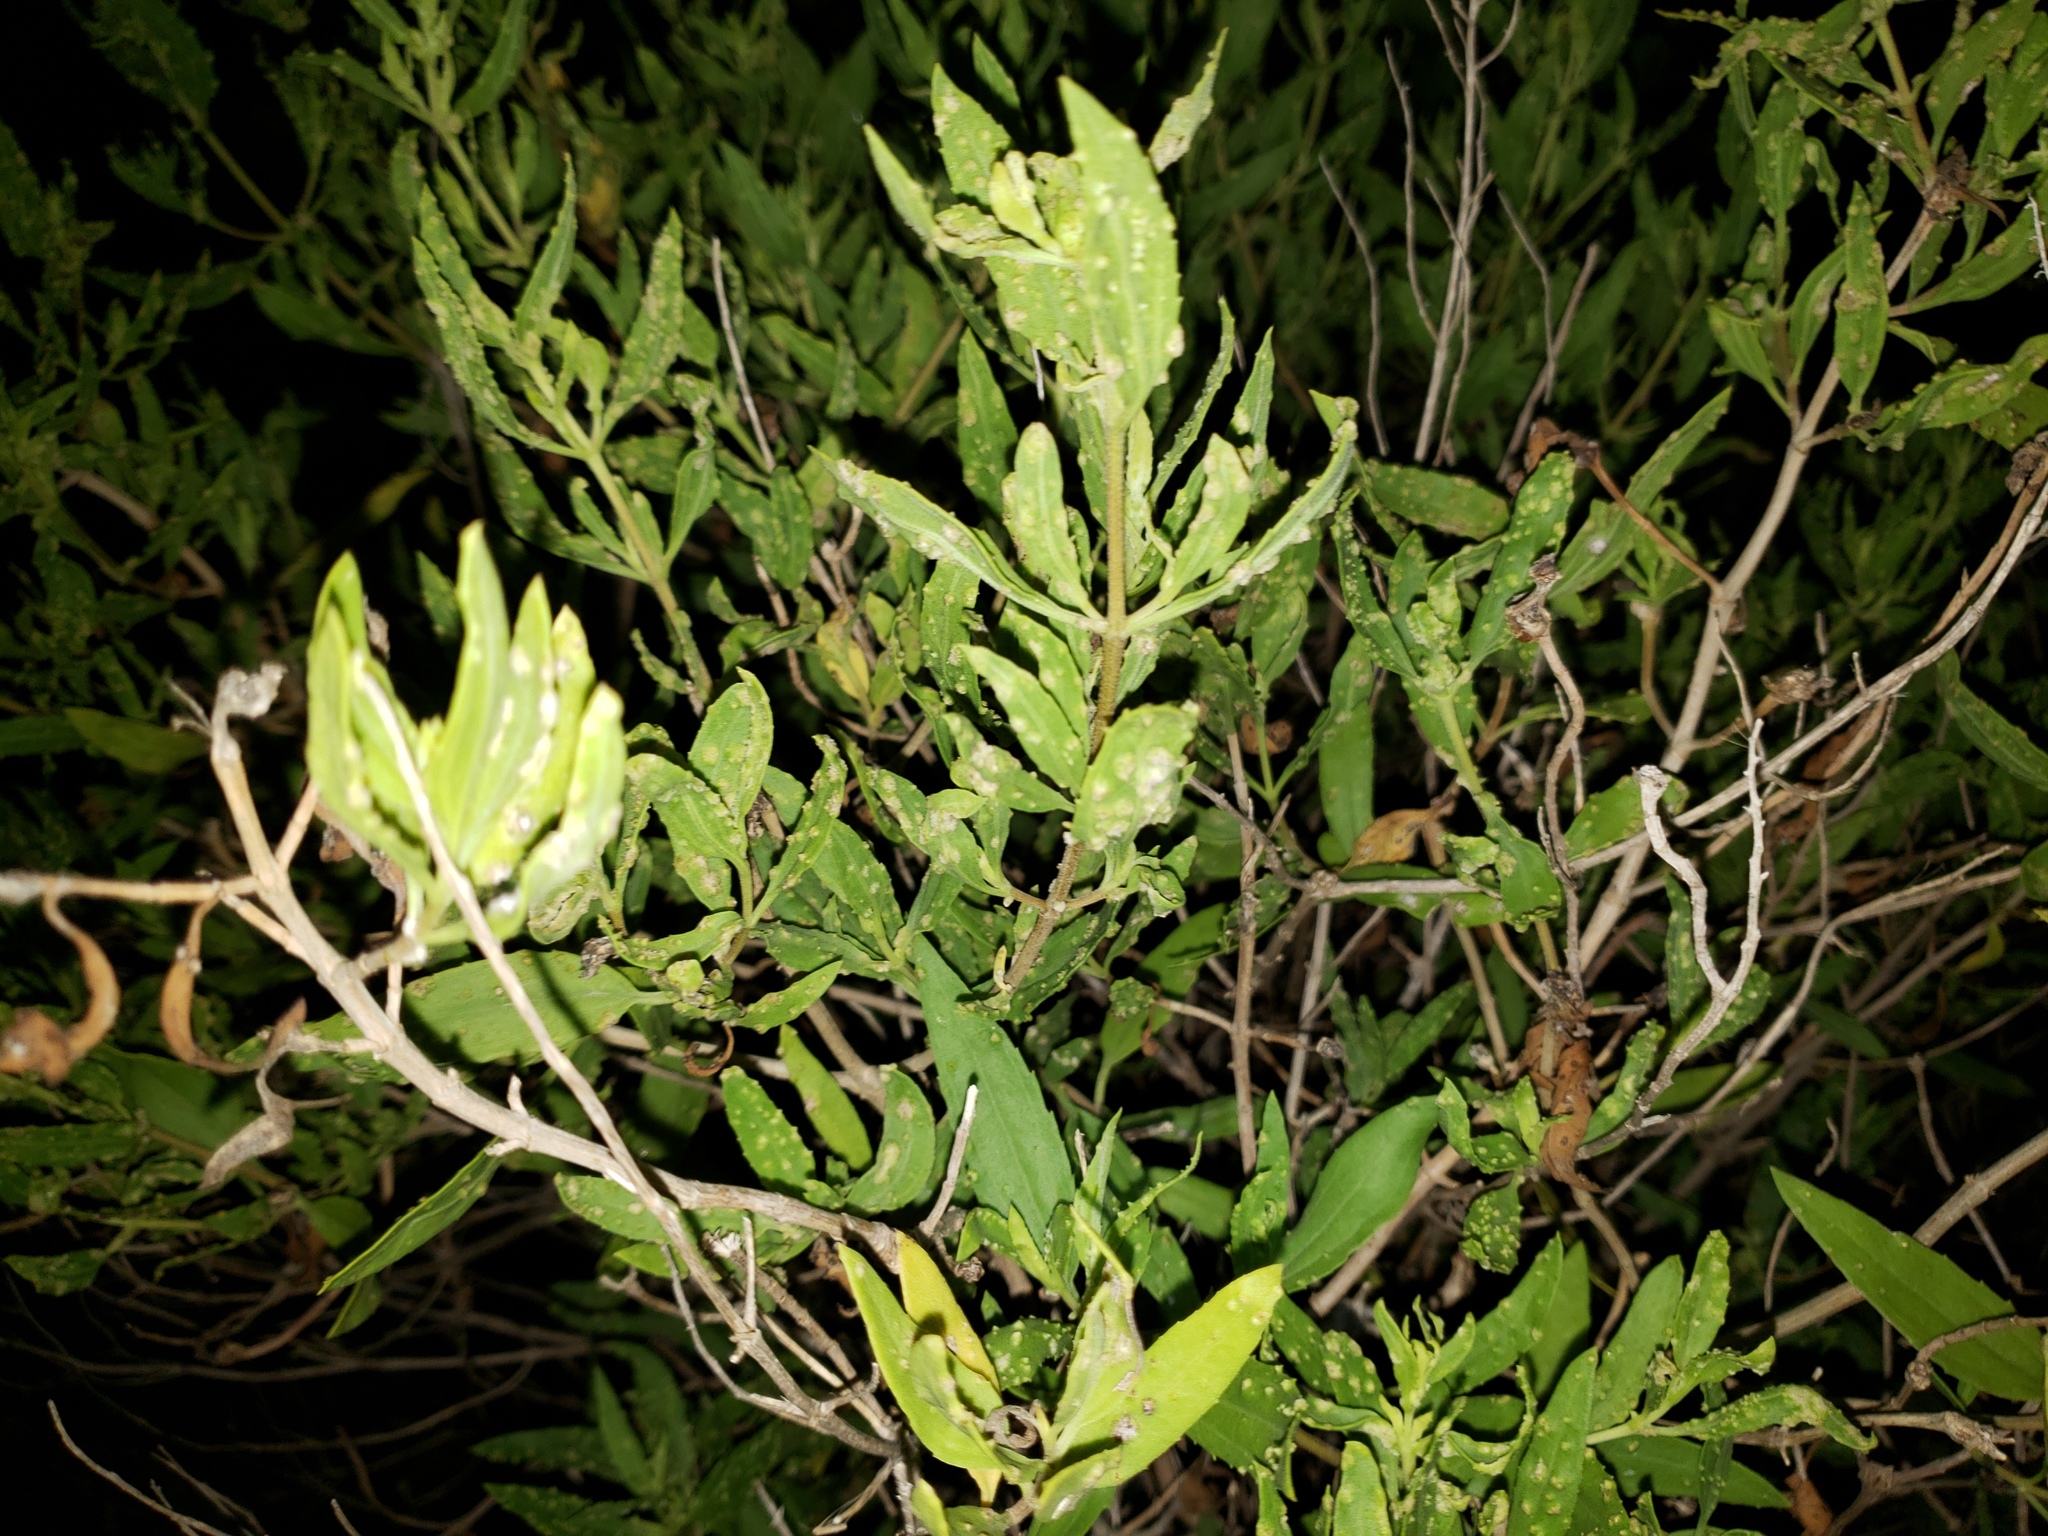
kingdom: Plantae
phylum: Tracheophyta
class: Magnoliopsida
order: Asterales
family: Asteraceae
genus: Iva
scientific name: Iva frutescens
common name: Big-leaved marsh-elder
